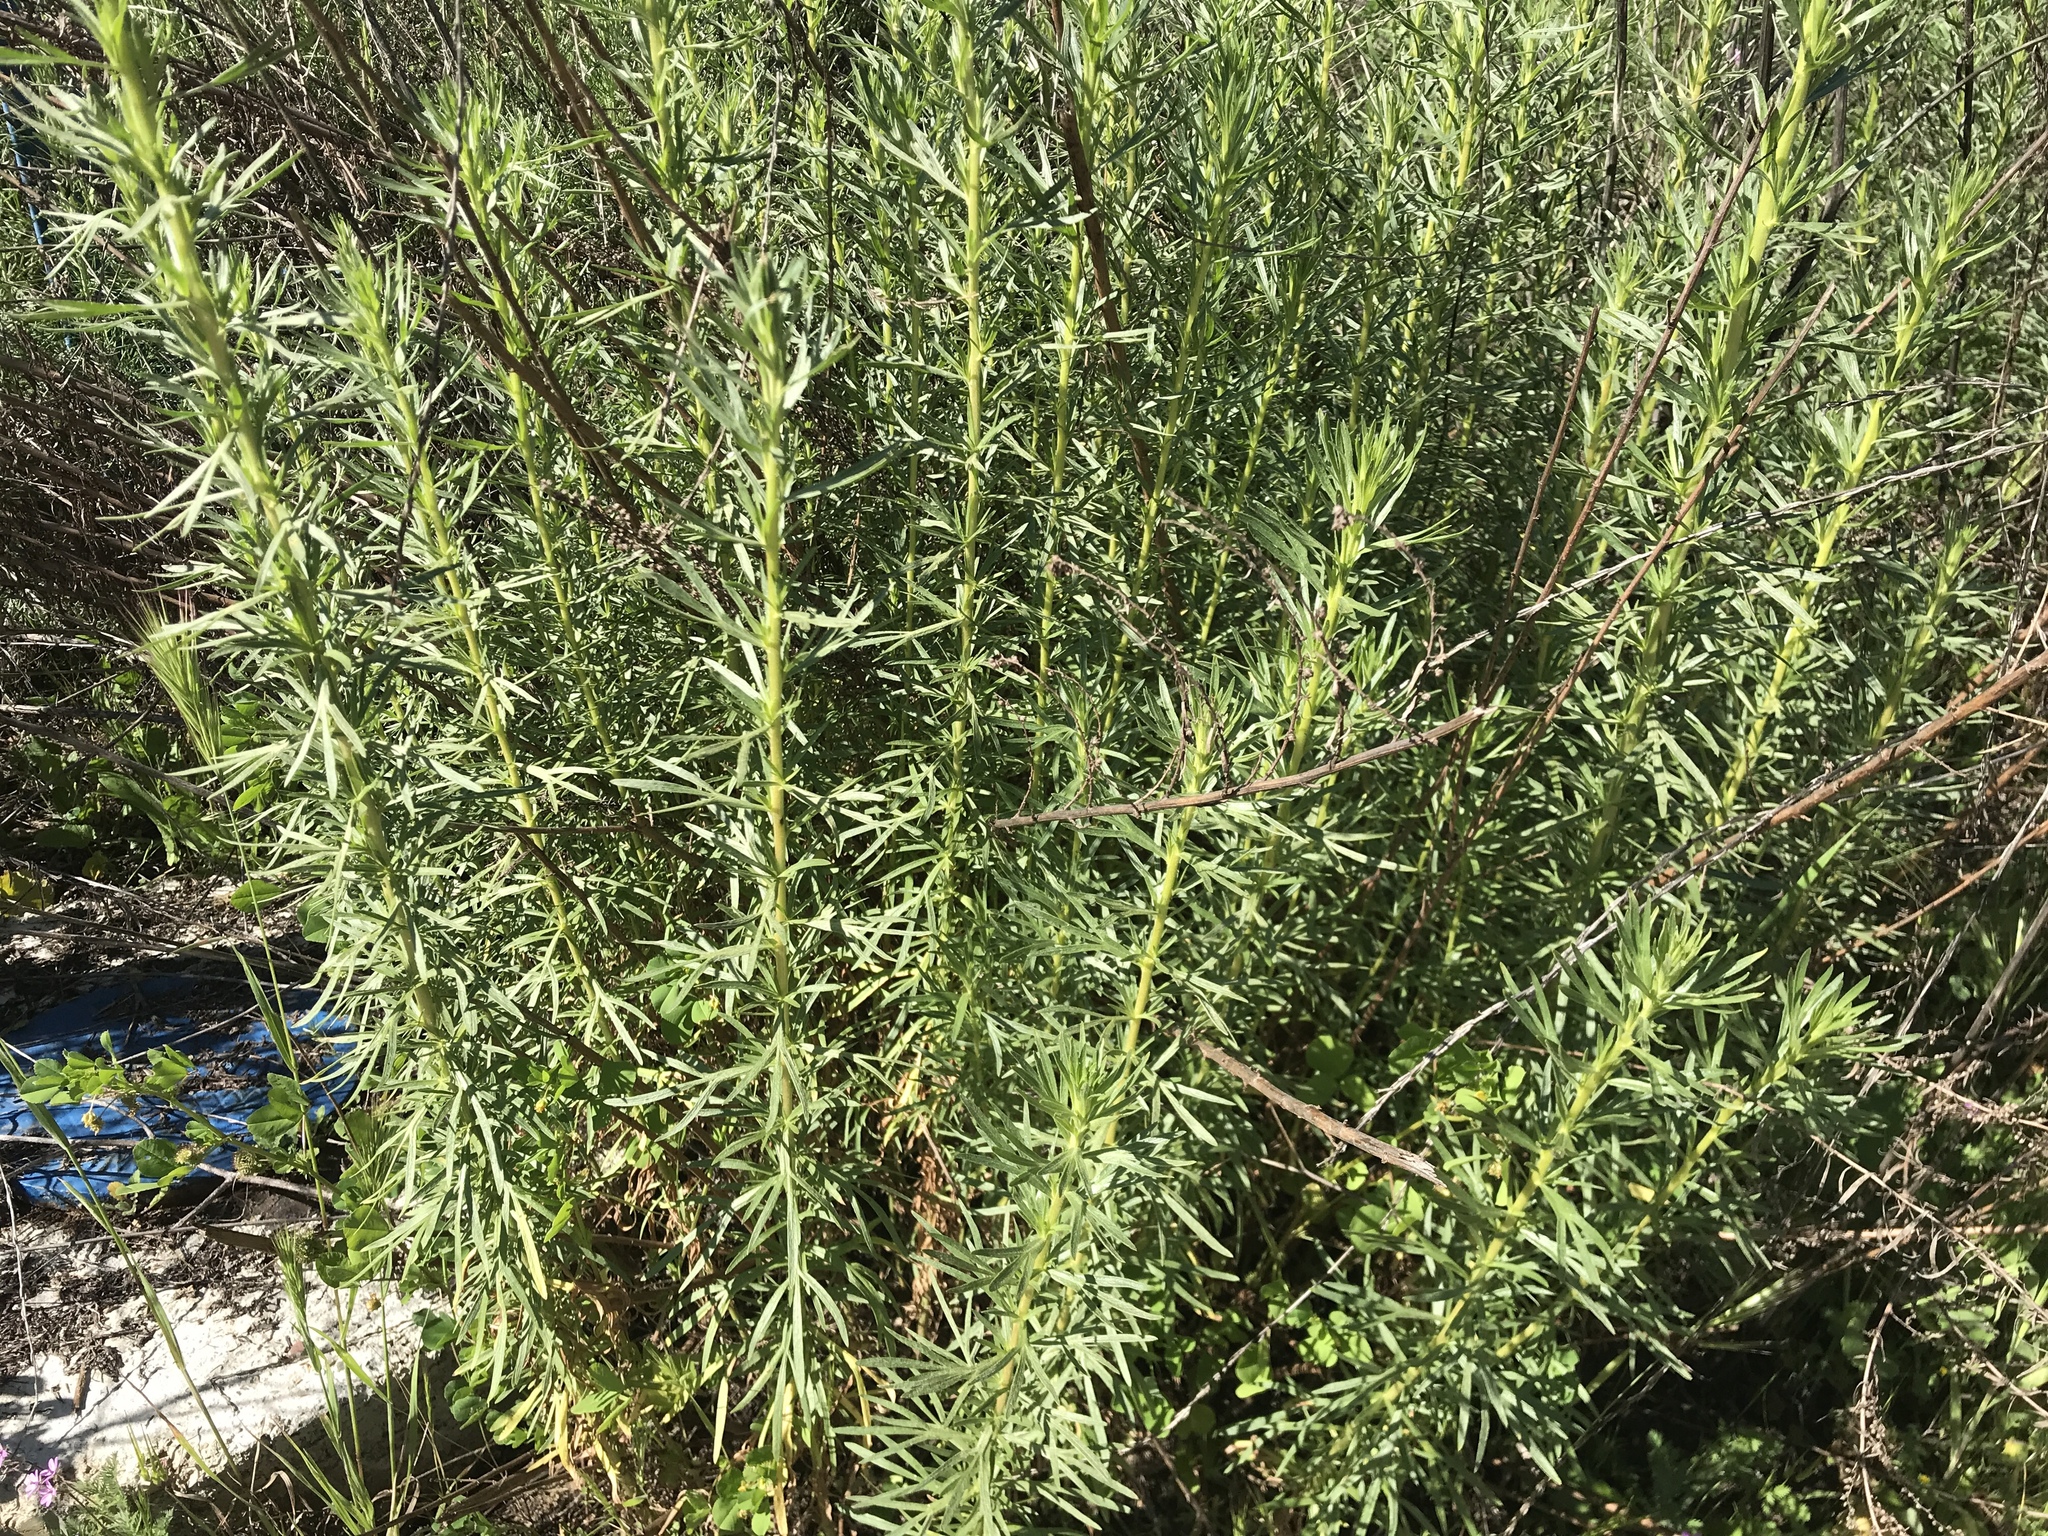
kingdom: Plantae
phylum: Tracheophyta
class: Magnoliopsida
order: Asterales
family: Asteraceae
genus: Artemisia
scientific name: Artemisia dracunculus
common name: Tarragon
